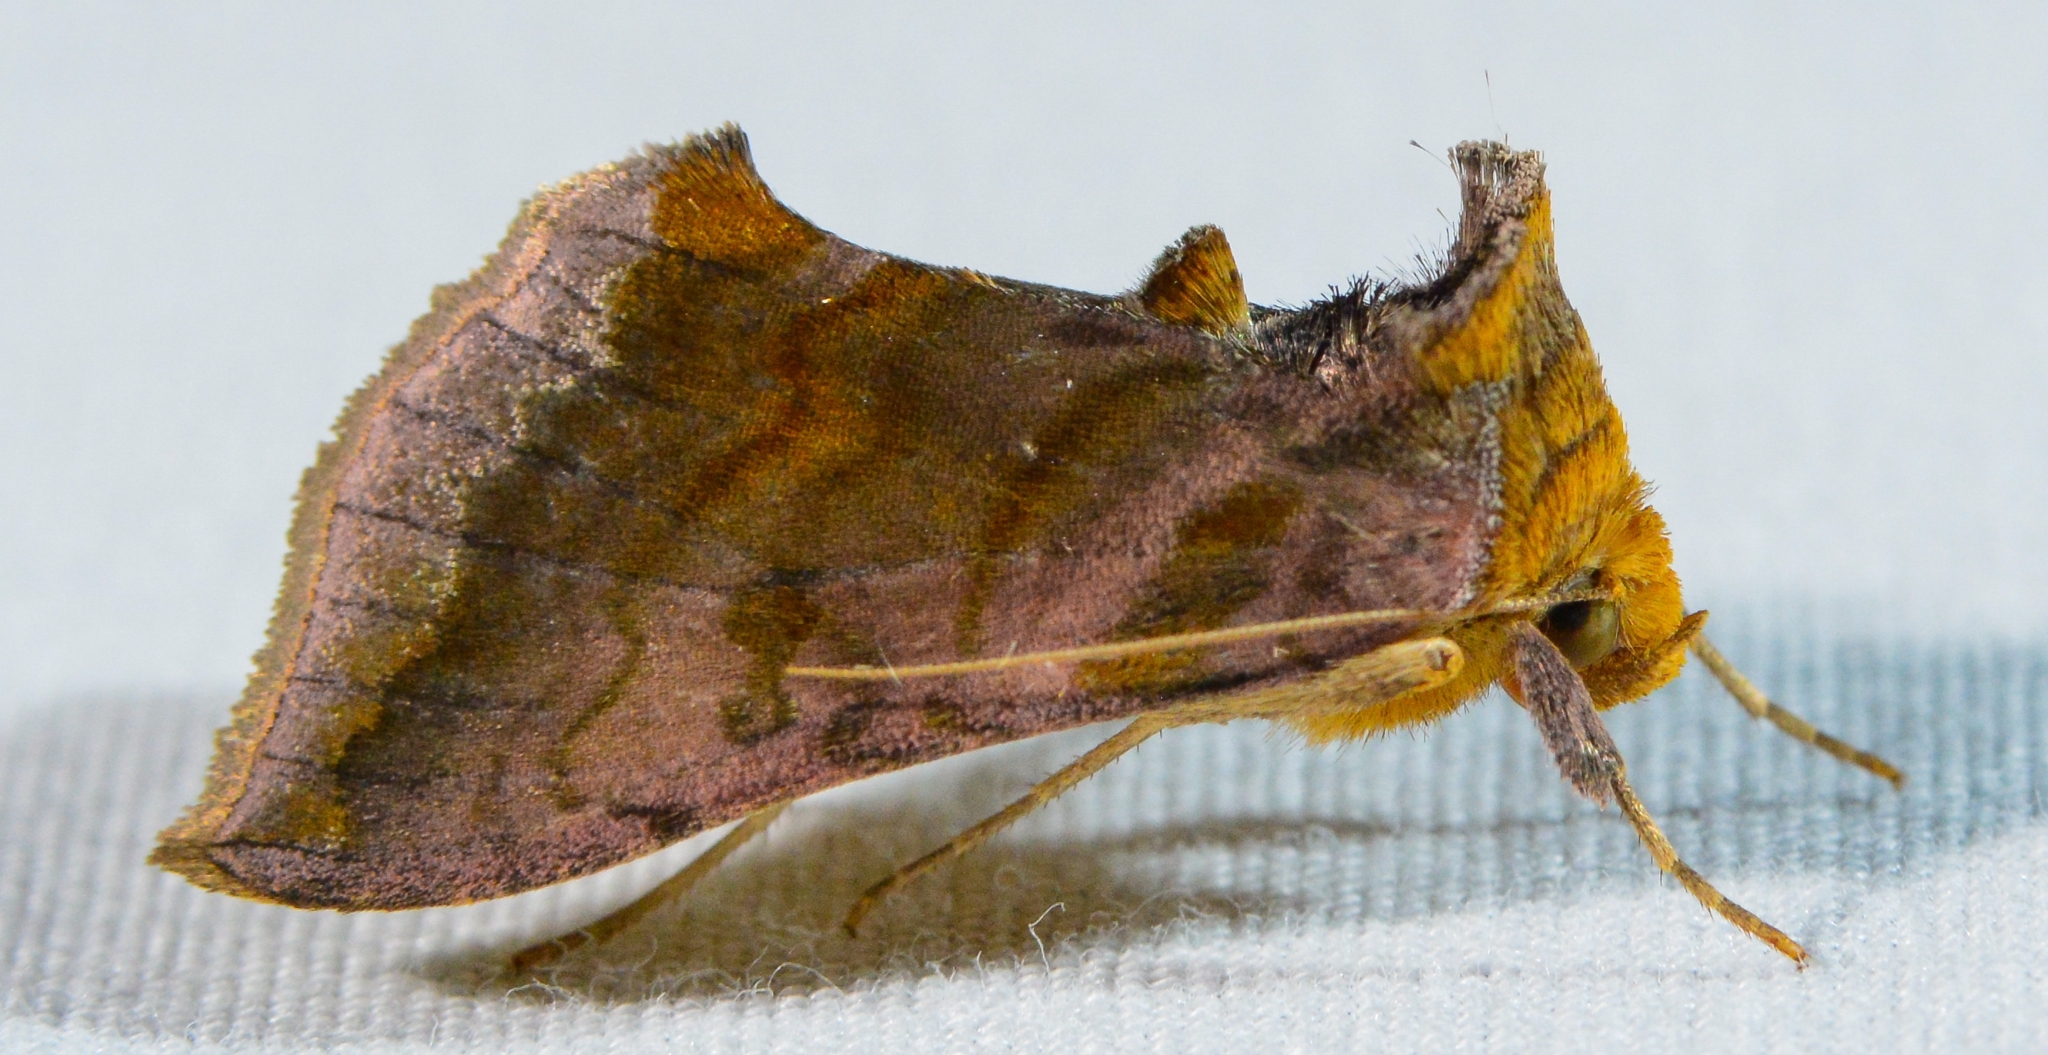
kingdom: Animalia
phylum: Arthropoda
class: Insecta
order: Lepidoptera
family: Noctuidae
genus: Allagrapha
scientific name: Allagrapha aerea
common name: Unspotted looper moth
